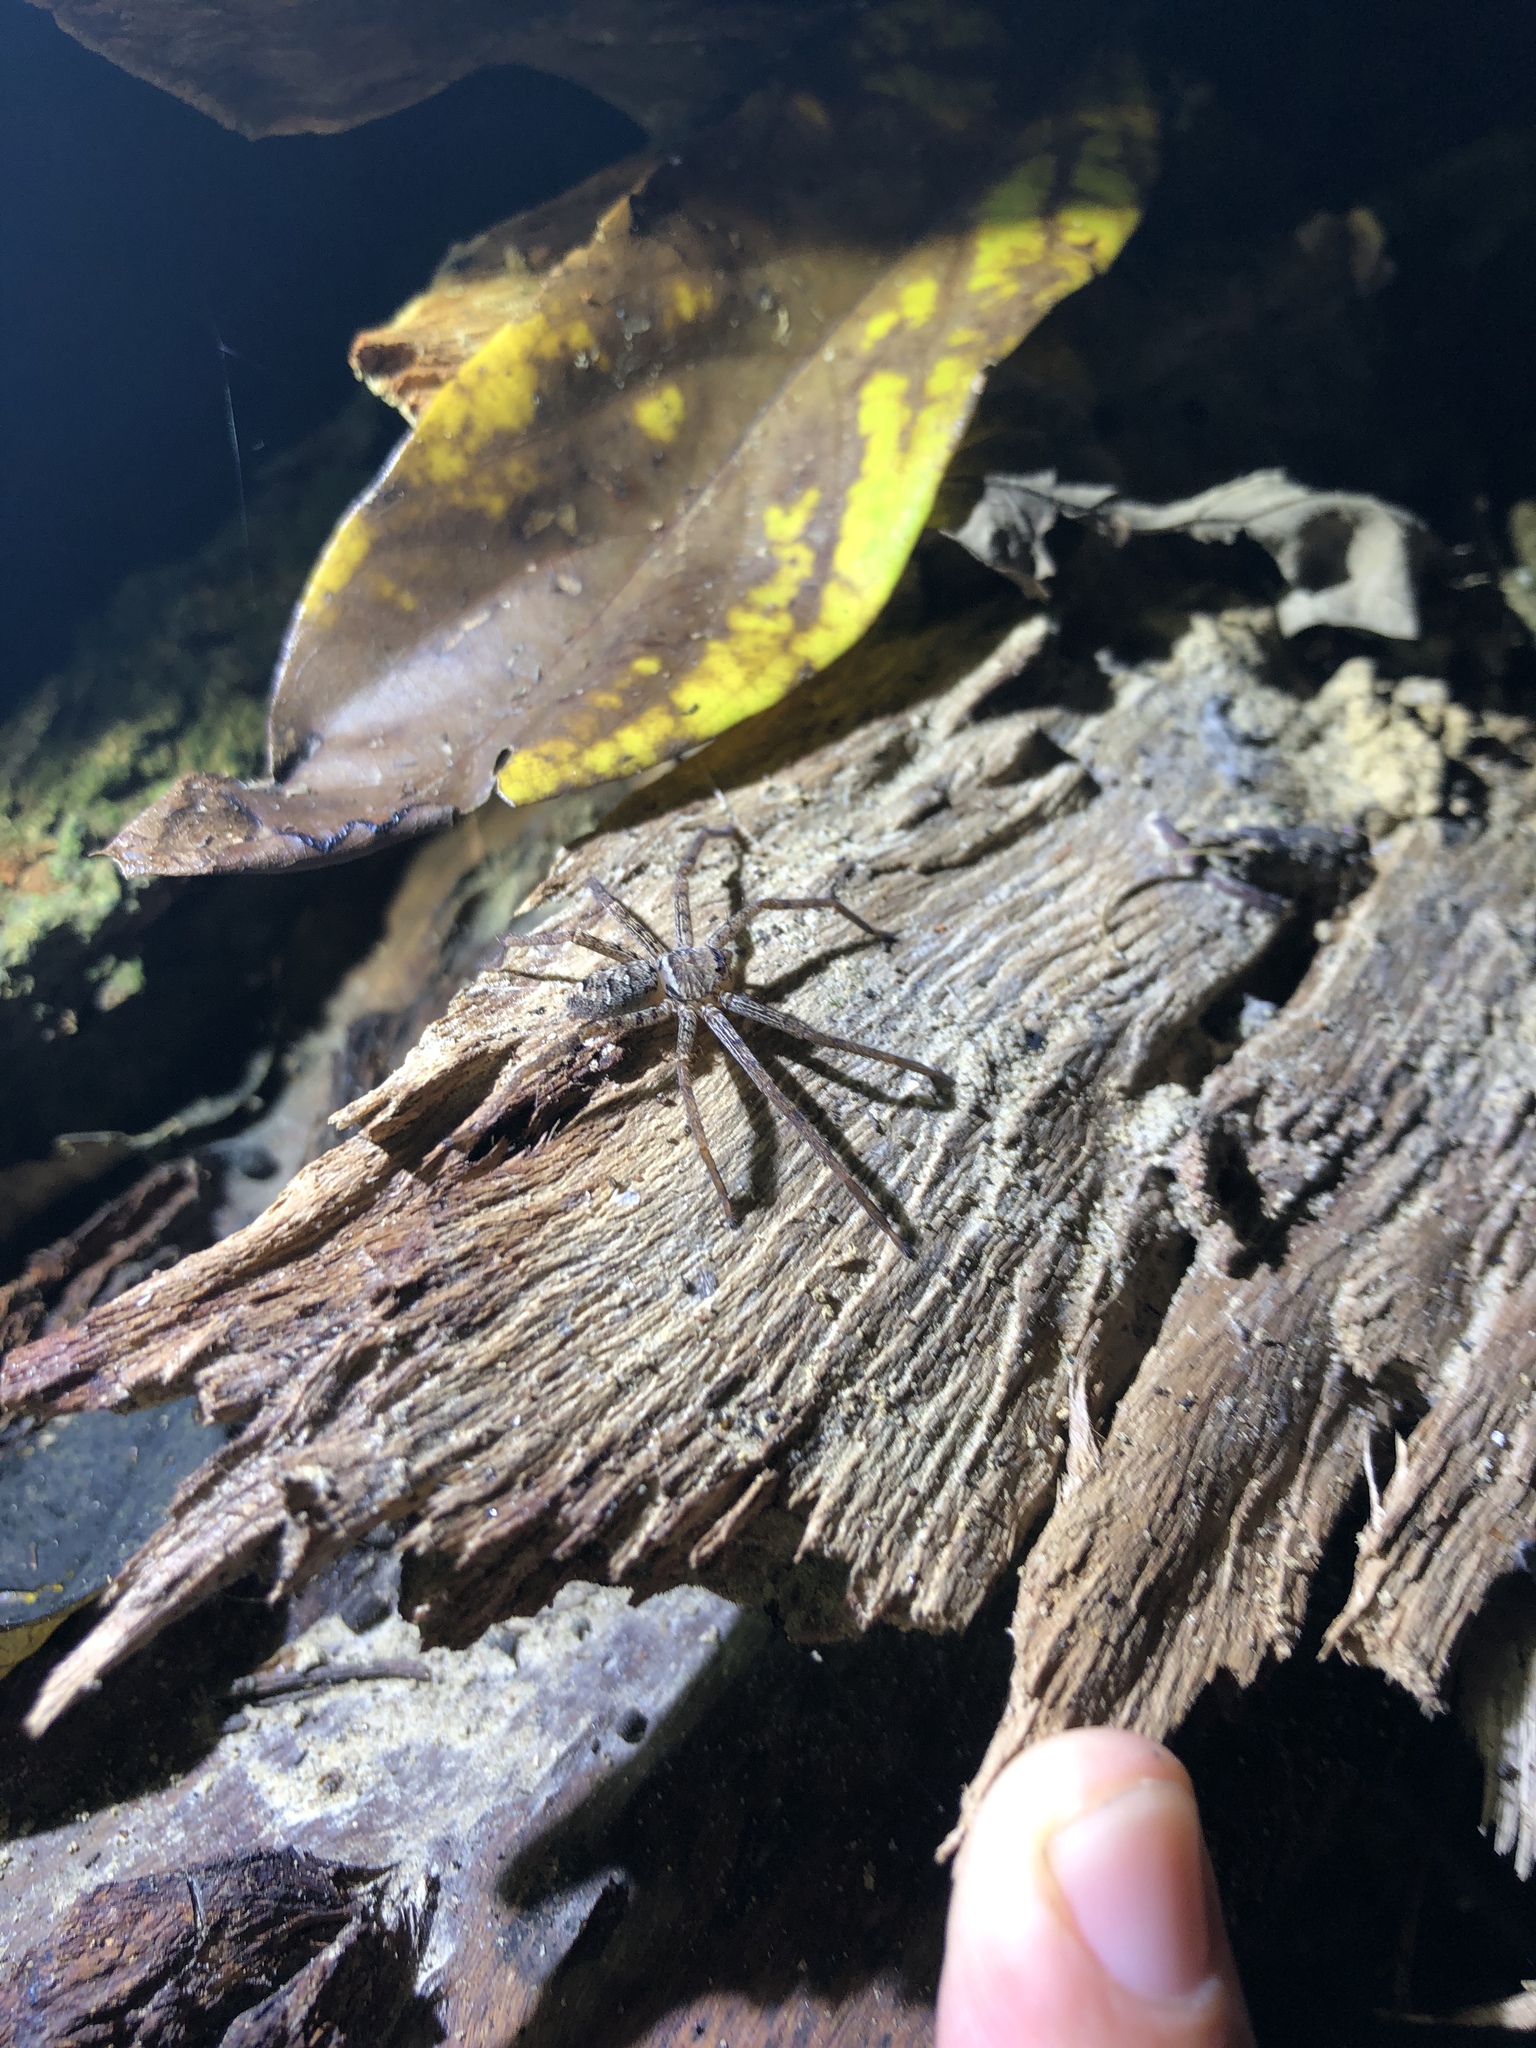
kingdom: Animalia
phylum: Arthropoda
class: Arachnida
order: Araneae
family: Sparassidae
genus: Heteropoda
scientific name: Heteropoda venatoria
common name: Huntsman spider
